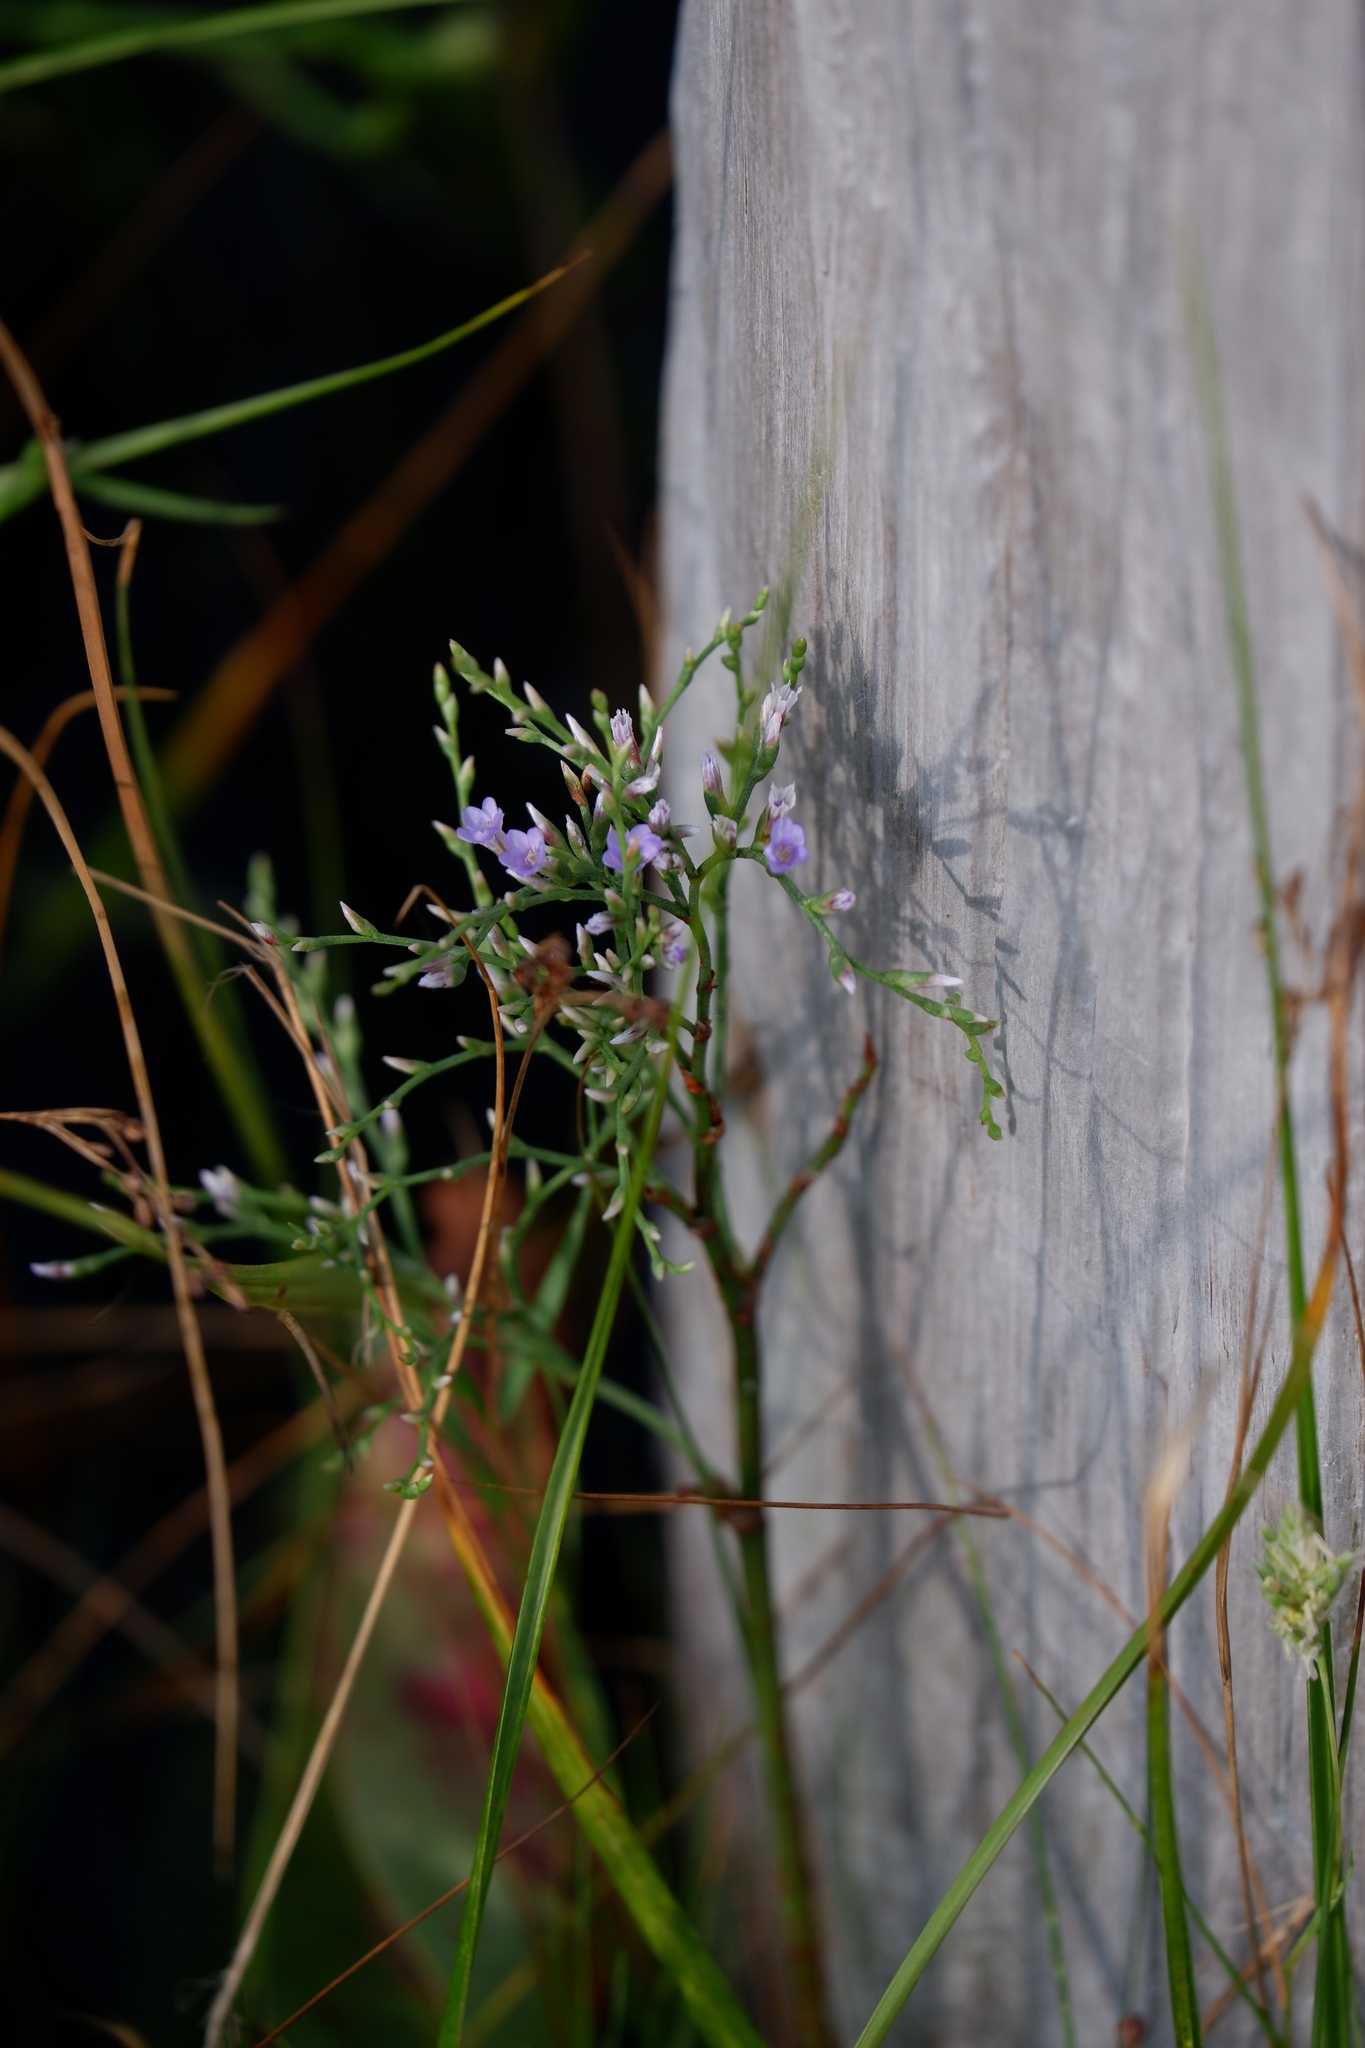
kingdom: Plantae
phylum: Tracheophyta
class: Magnoliopsida
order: Caryophyllales
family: Plumbaginaceae
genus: Limonium
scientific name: Limonium carolinianum
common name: Carolina sea lavender
